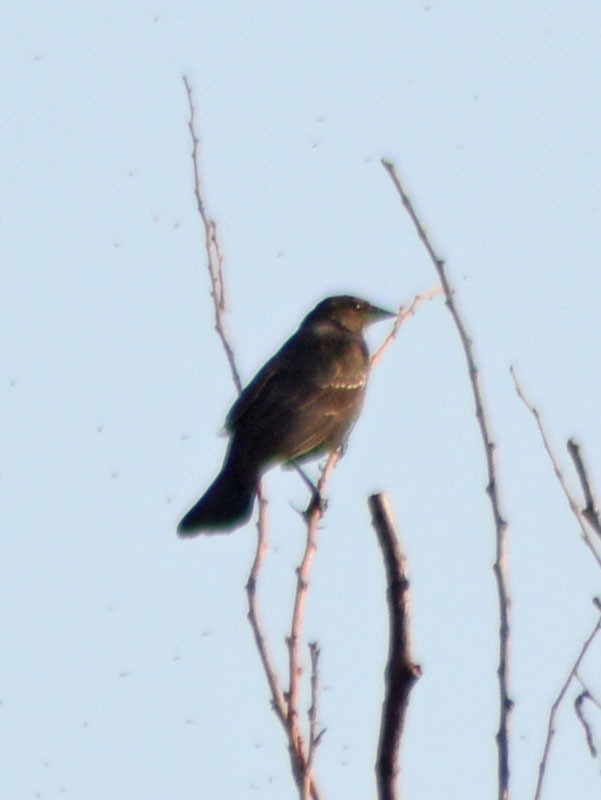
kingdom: Animalia
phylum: Chordata
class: Aves
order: Passeriformes
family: Icteridae
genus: Agelaius
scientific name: Agelaius phoeniceus
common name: Red-winged blackbird
